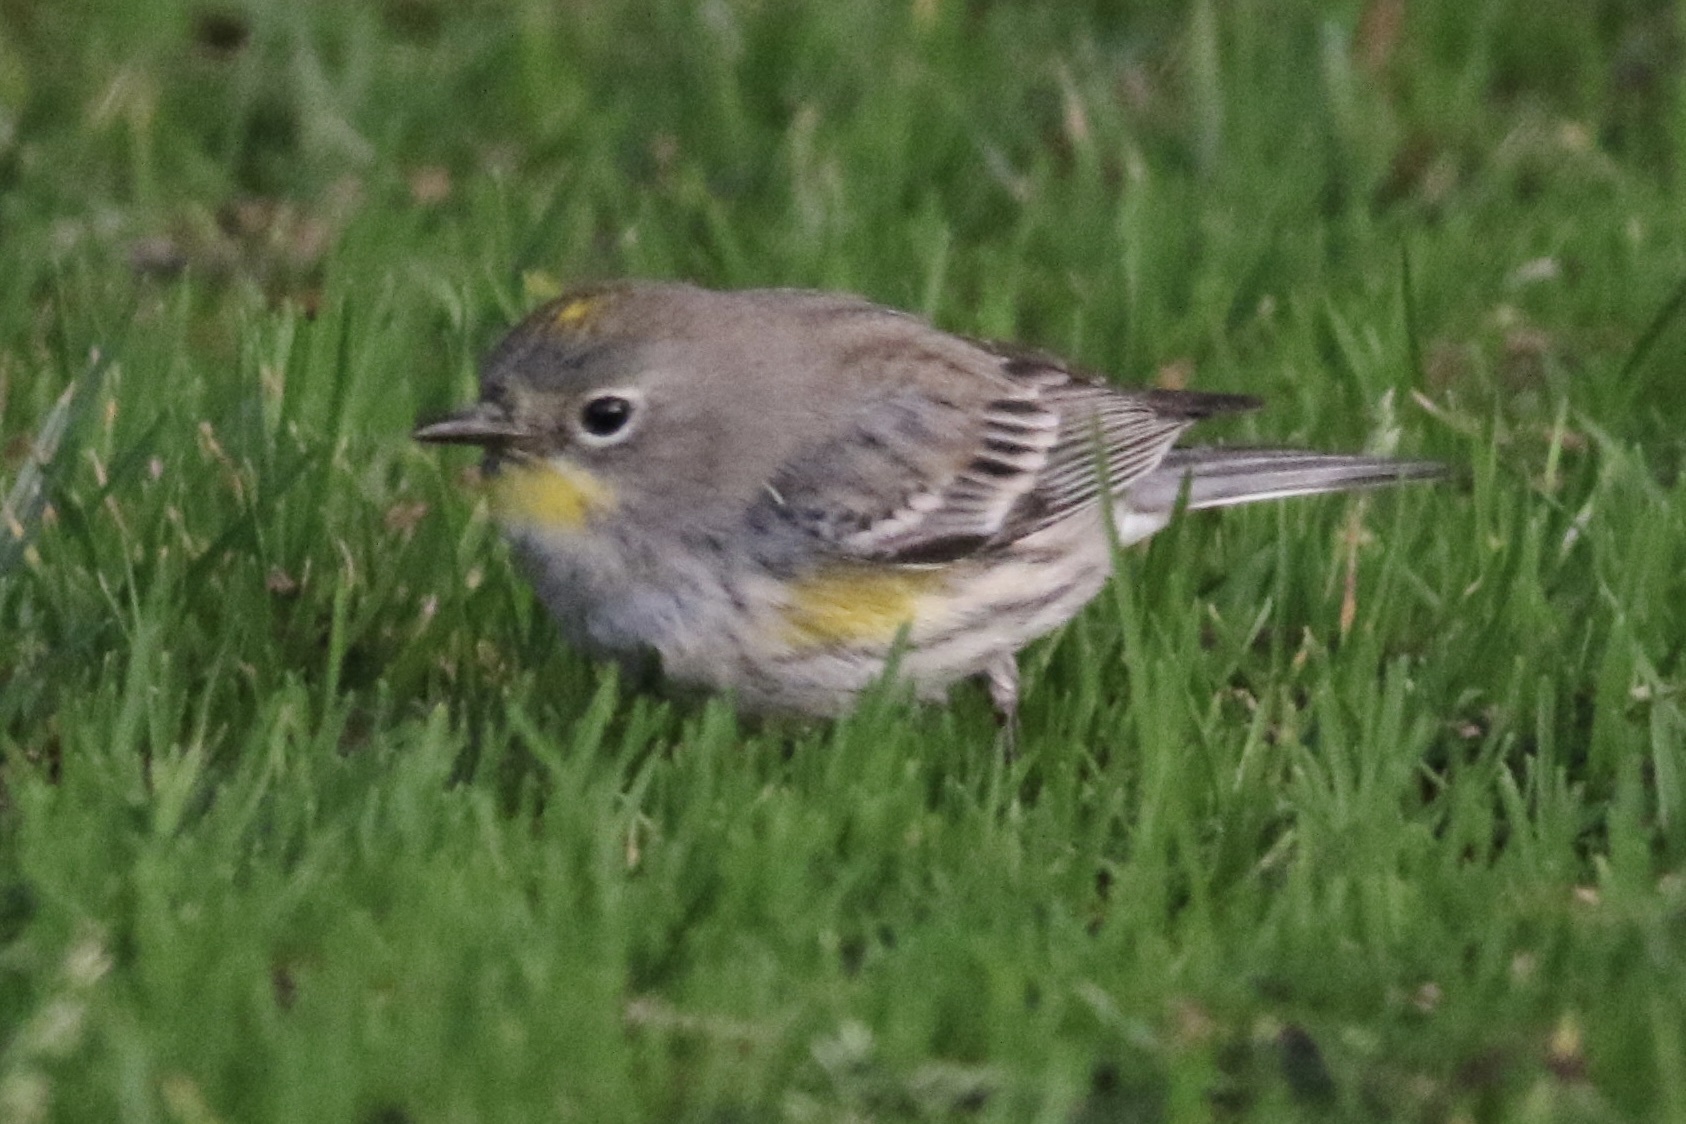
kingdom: Animalia
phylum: Chordata
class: Aves
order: Passeriformes
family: Parulidae
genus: Setophaga
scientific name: Setophaga coronata
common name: Myrtle warbler
